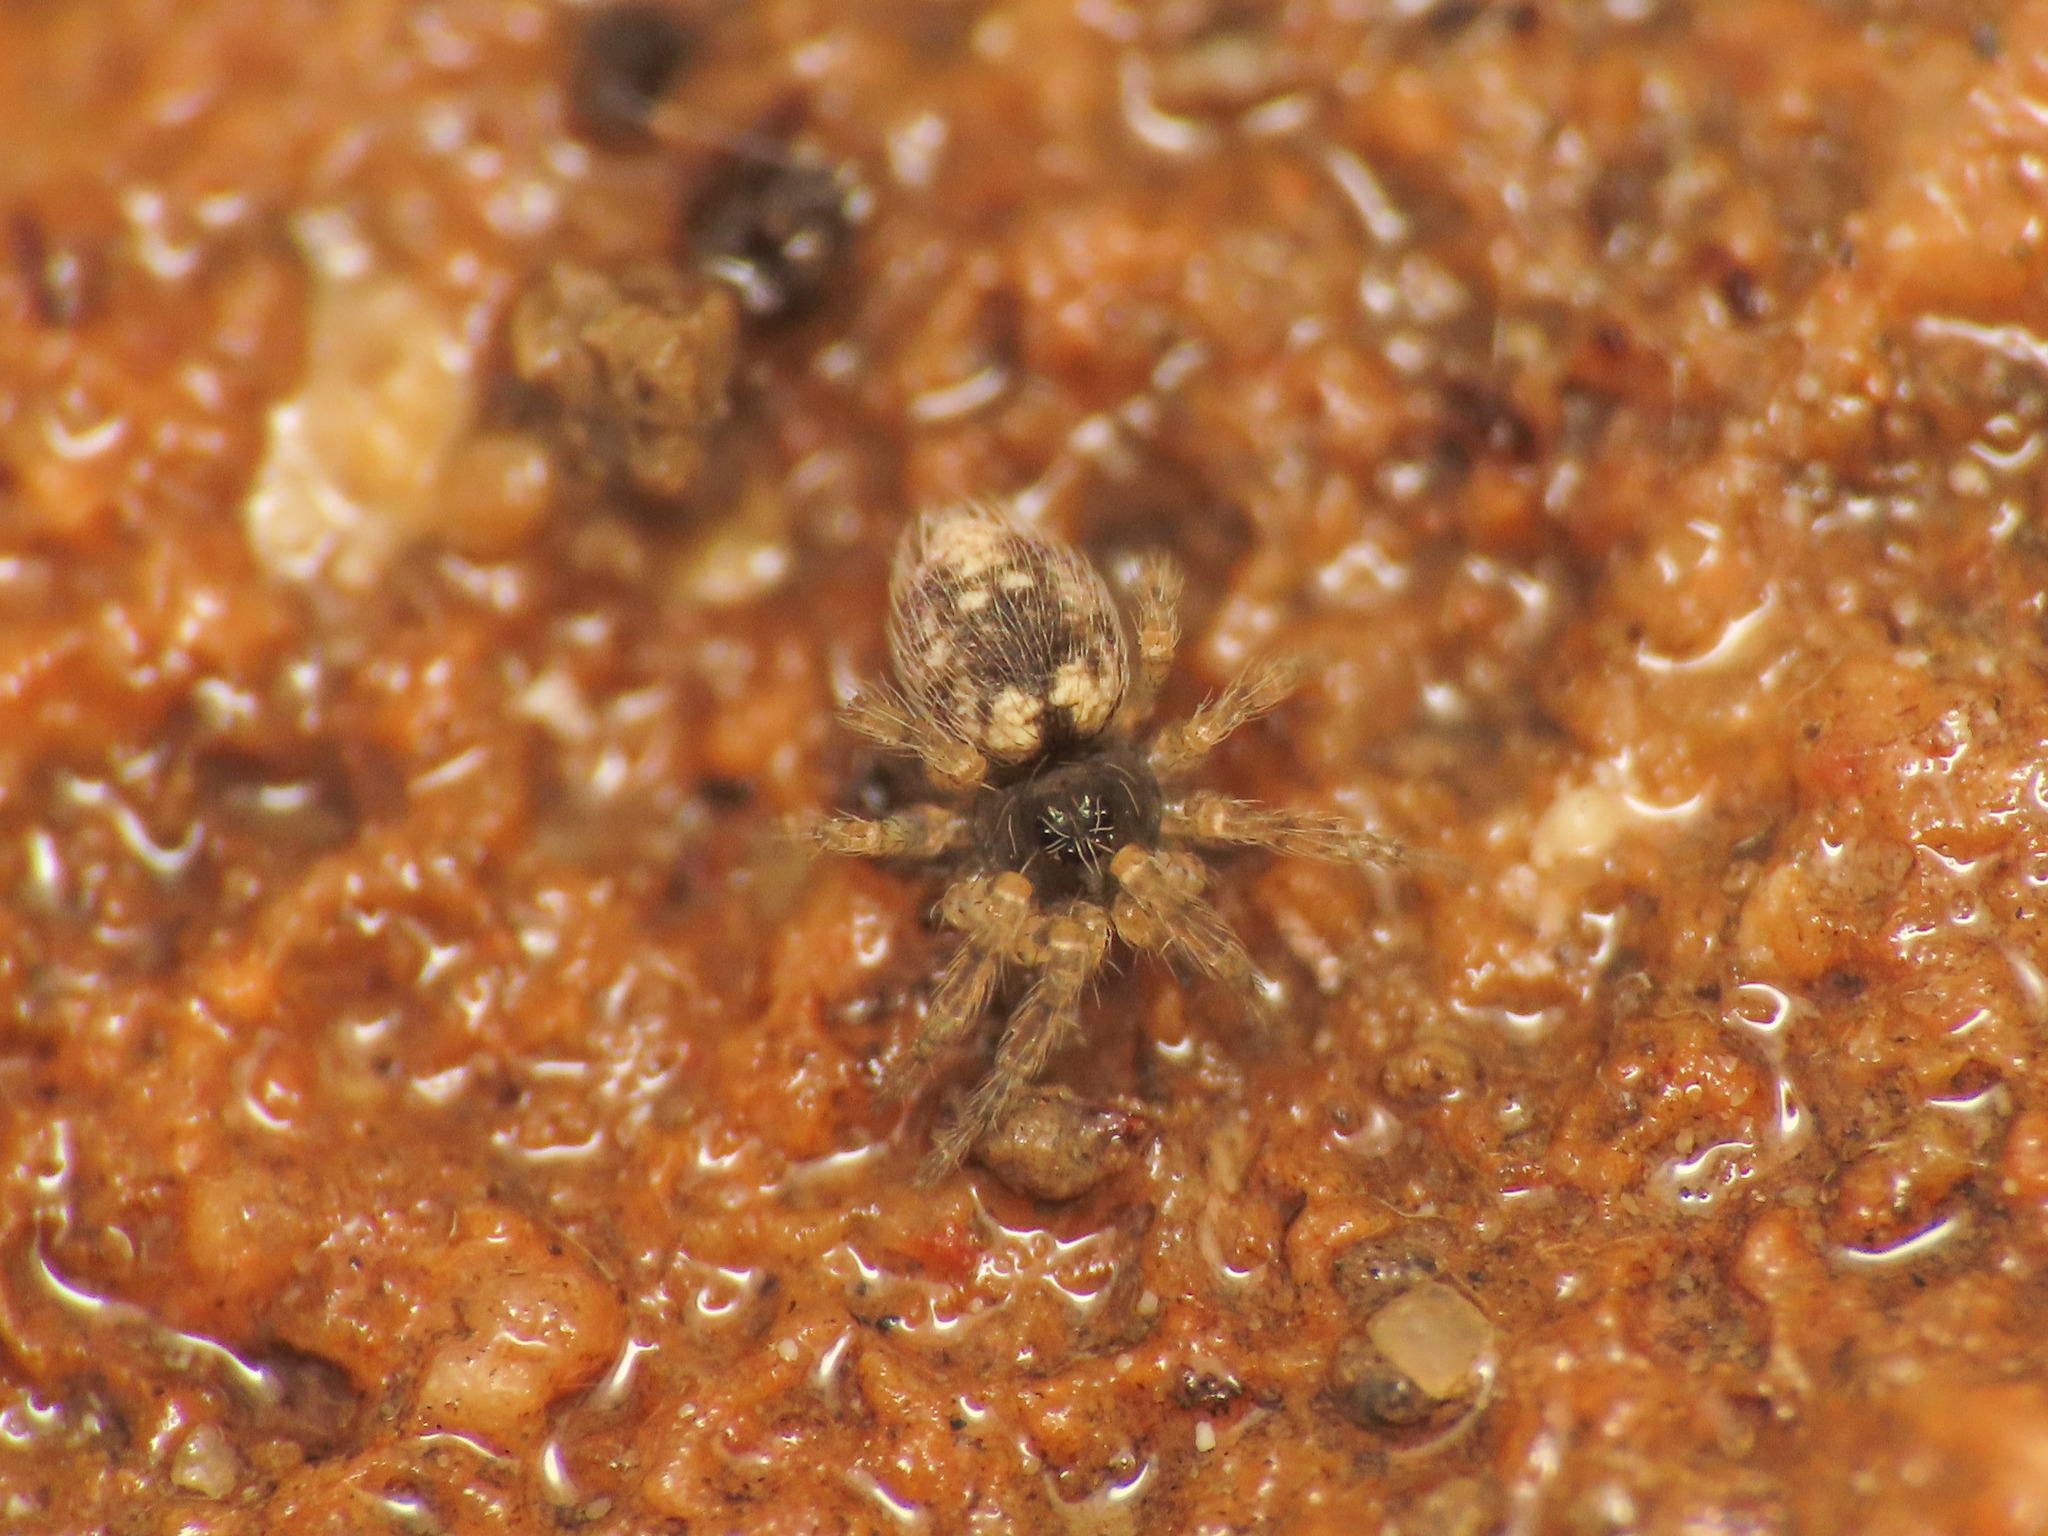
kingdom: Animalia
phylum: Arthropoda
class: Arachnida
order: Araneae
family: Oecobiidae
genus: Oecobius
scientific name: Oecobius maculatus
